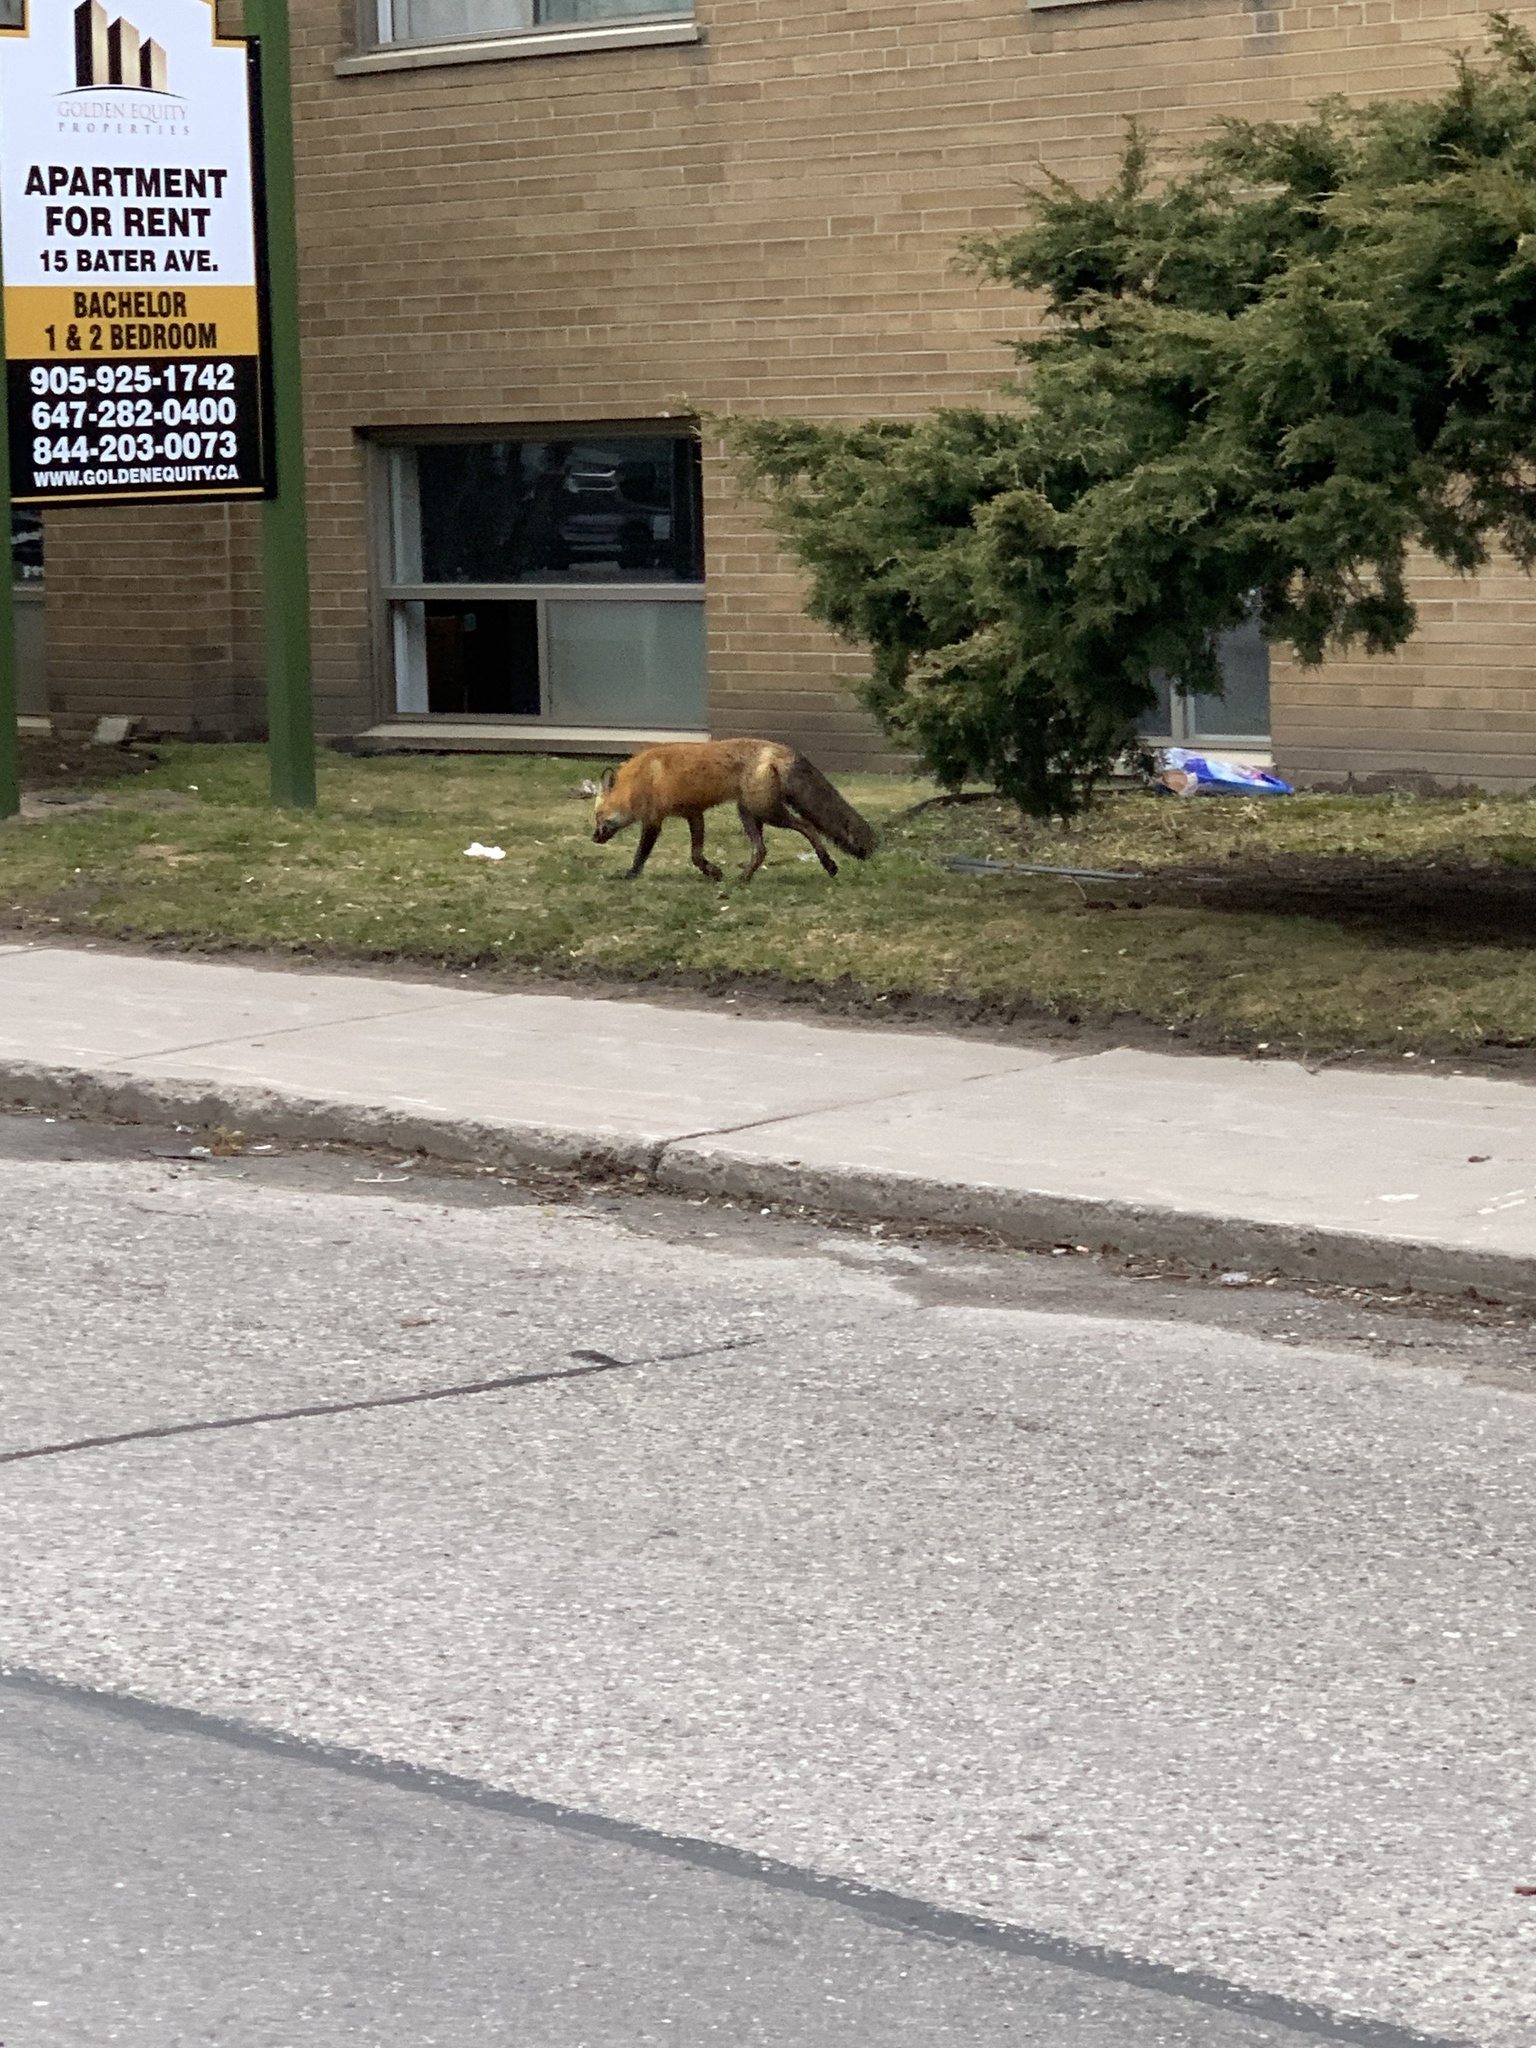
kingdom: Animalia
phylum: Chordata
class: Mammalia
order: Carnivora
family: Canidae
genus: Vulpes
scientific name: Vulpes vulpes
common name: Red fox
